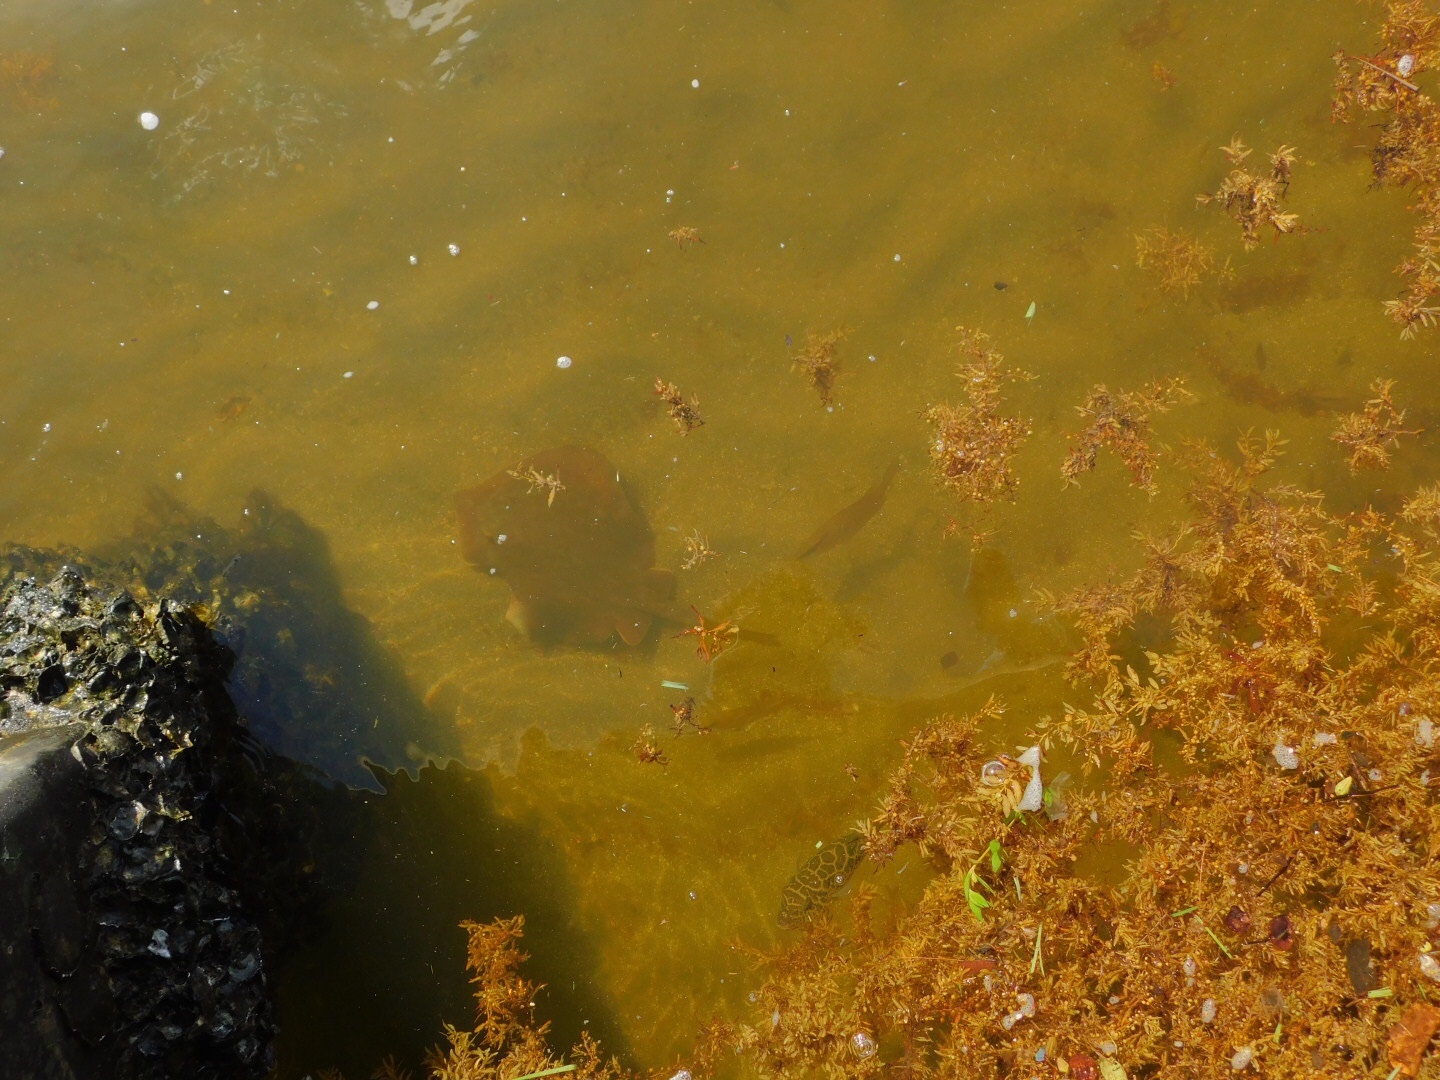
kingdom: Animalia
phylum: Chordata
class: Elasmobranchii
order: Myliobatiformes
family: Dasyatidae
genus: Hypanus
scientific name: Hypanus sabinus
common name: Atlantic stingray
